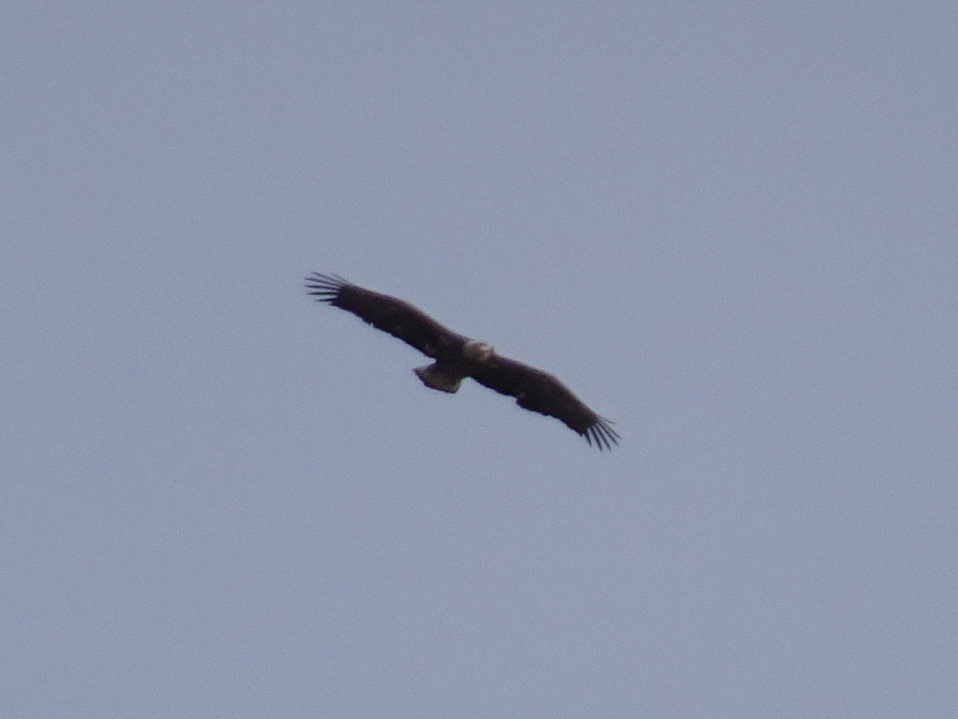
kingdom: Animalia
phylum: Chordata
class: Aves
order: Accipitriformes
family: Accipitridae
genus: Haliaeetus
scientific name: Haliaeetus leucocephalus
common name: Bald eagle
